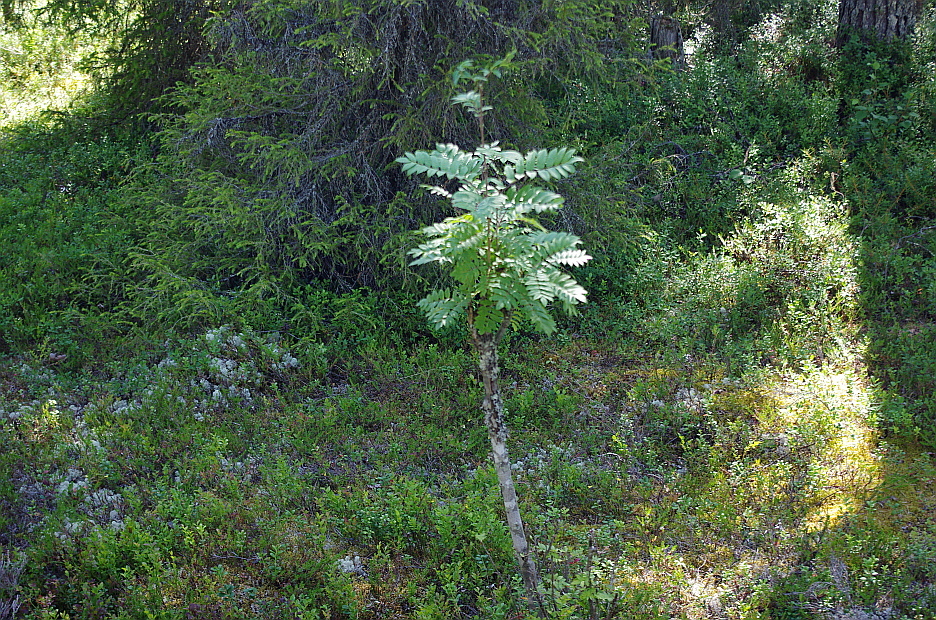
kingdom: Plantae
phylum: Tracheophyta
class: Magnoliopsida
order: Rosales
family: Rosaceae
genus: Sorbus
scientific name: Sorbus aucuparia
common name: Rowan
